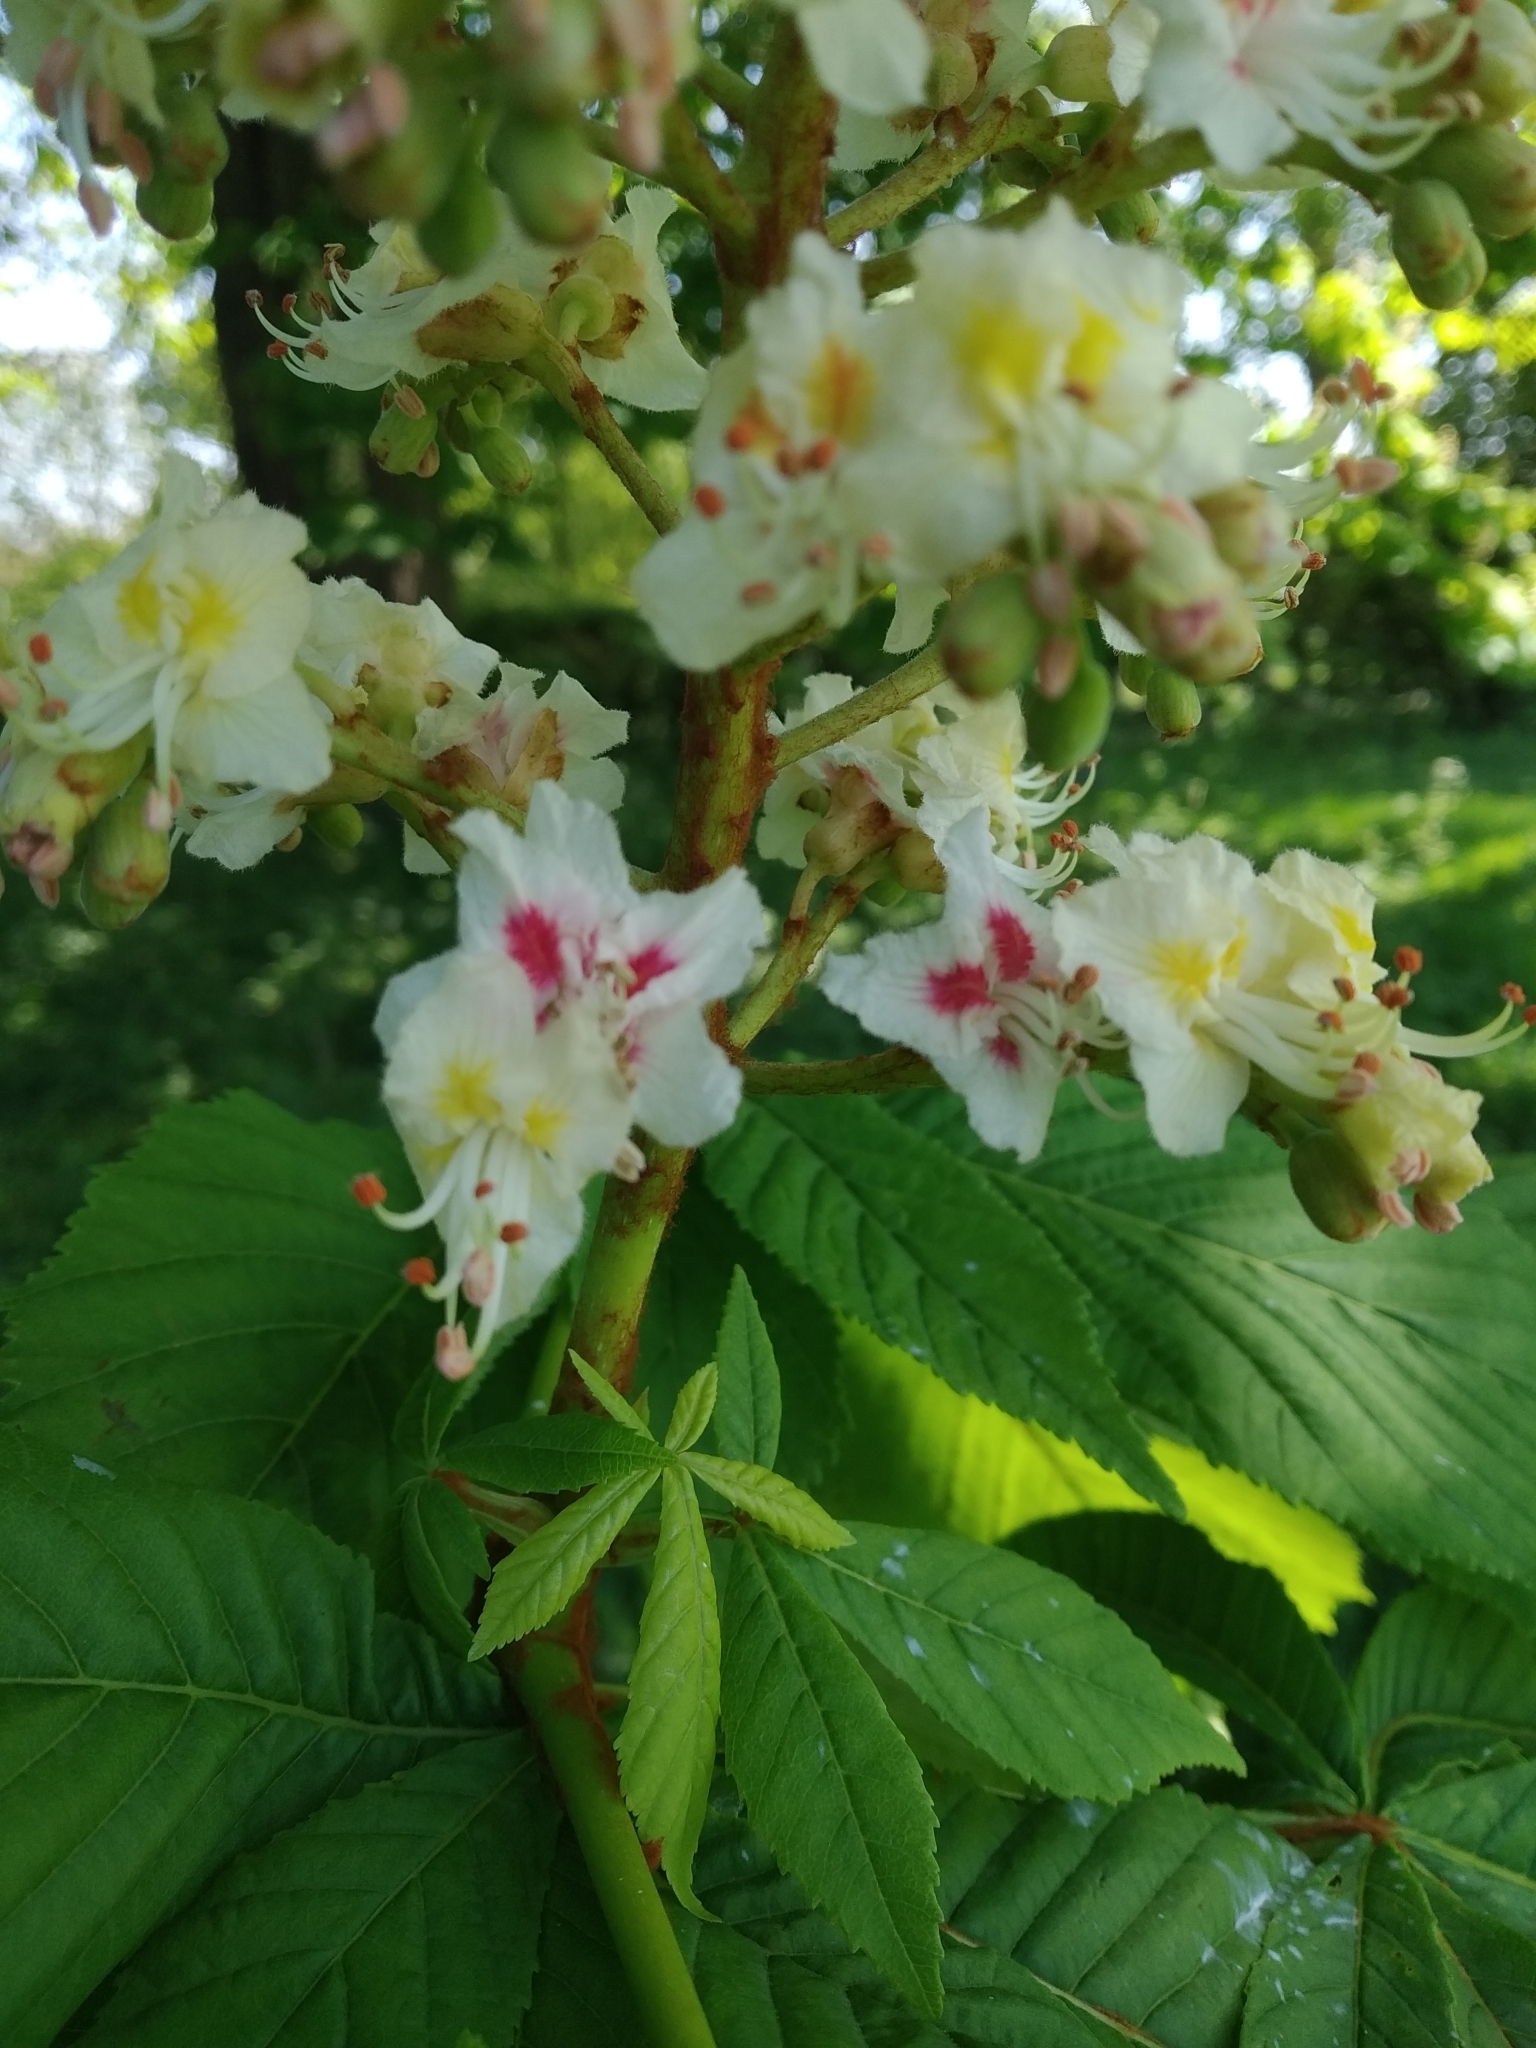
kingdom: Plantae
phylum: Tracheophyta
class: Magnoliopsida
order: Sapindales
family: Sapindaceae
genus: Aesculus
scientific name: Aesculus hippocastanum
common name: Horse-chestnut
